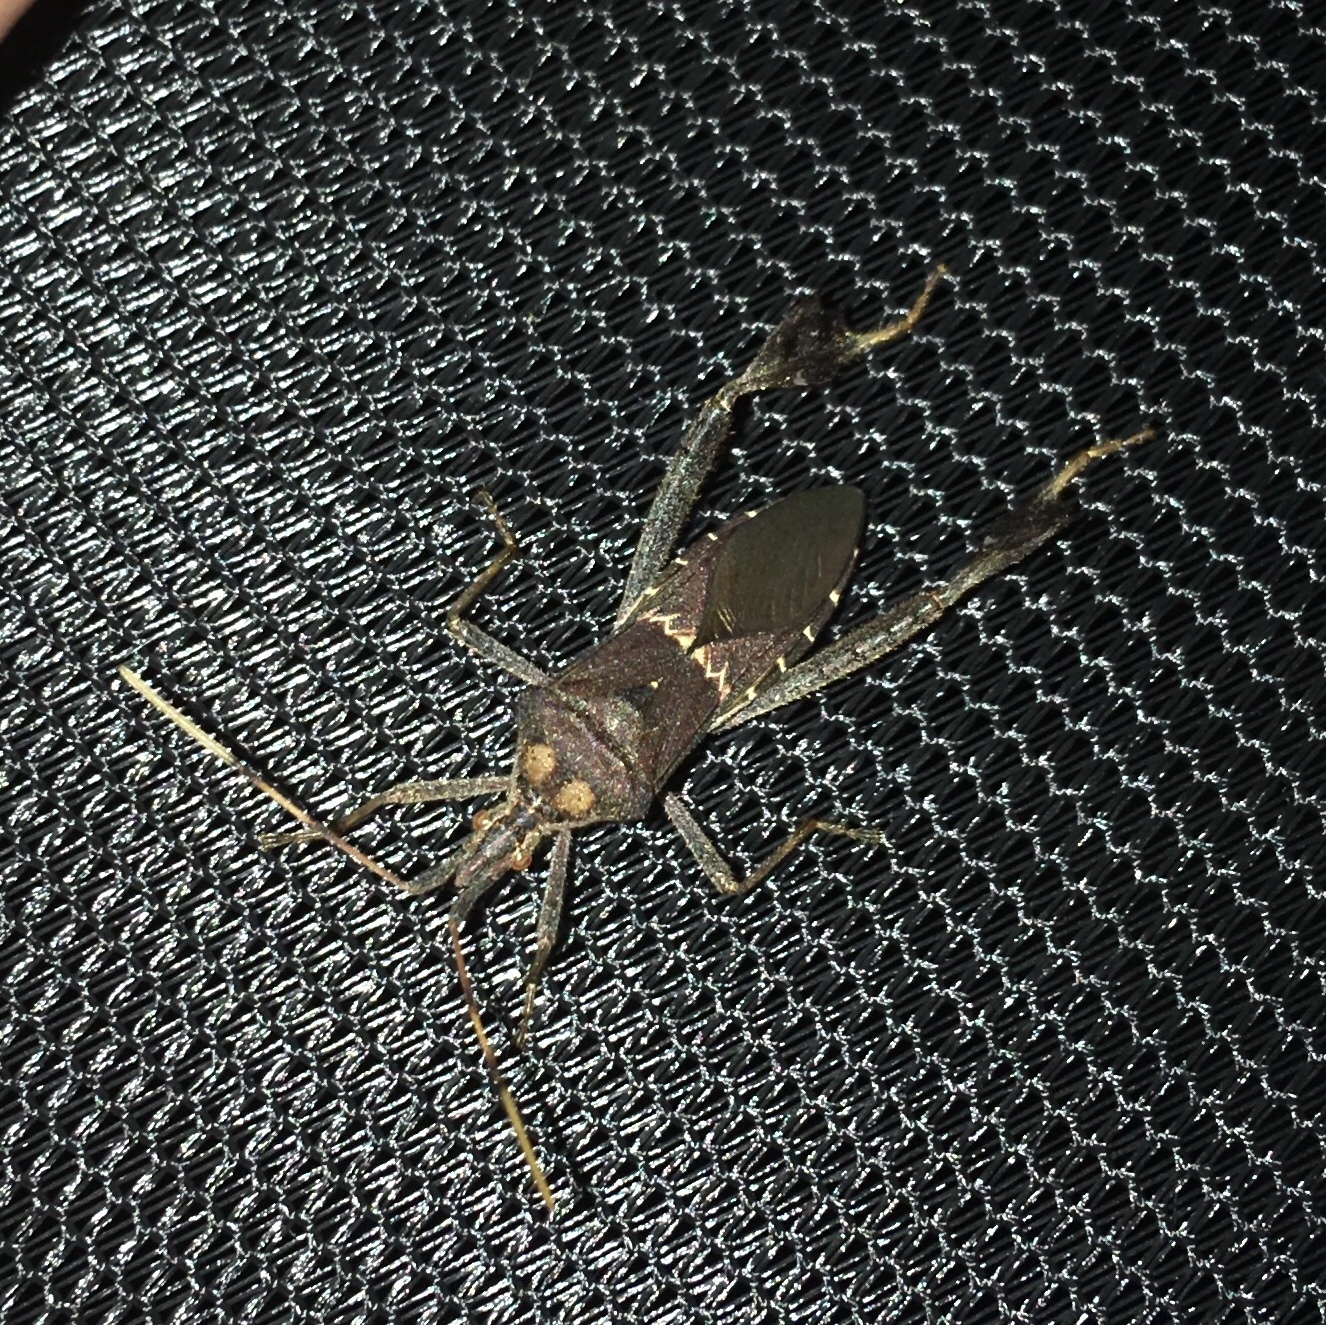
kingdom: Animalia
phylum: Arthropoda
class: Insecta
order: Hemiptera
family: Coreidae
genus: Leptoglossus
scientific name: Leptoglossus zonatus
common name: Large-legged bug
